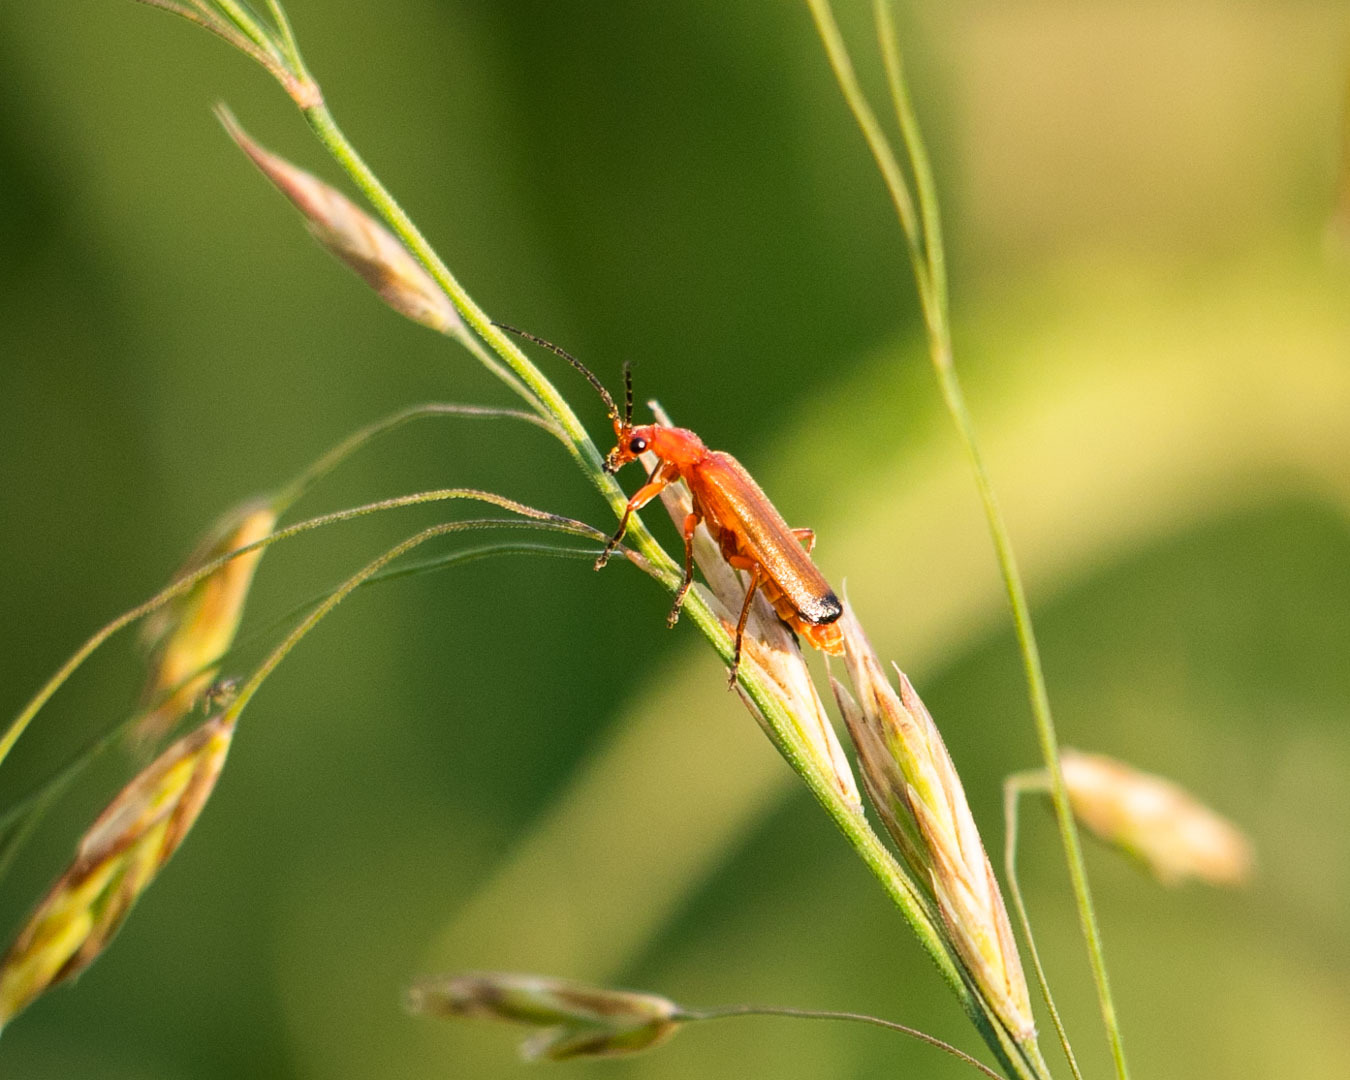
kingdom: Animalia
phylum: Arthropoda
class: Insecta
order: Coleoptera
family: Cantharidae
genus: Rhagonycha
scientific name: Rhagonycha fulva
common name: Common red soldier beetle
